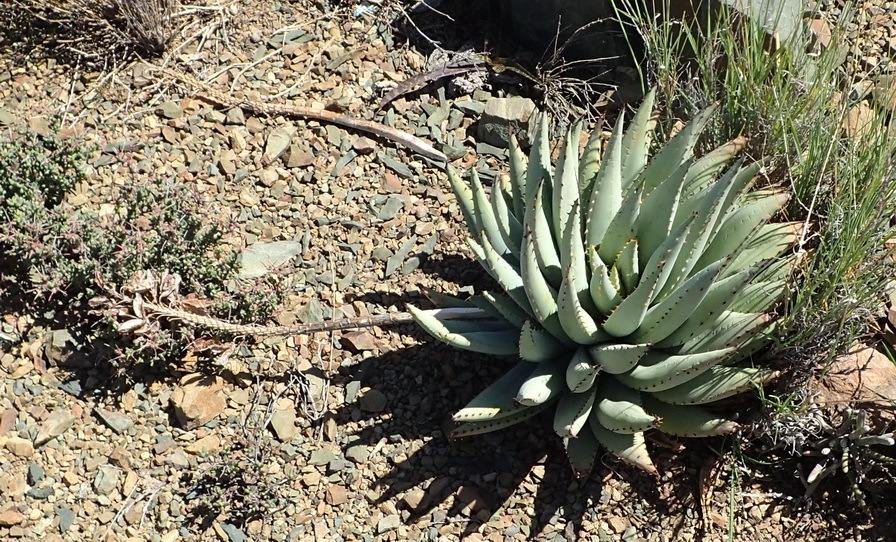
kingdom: Plantae
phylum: Tracheophyta
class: Liliopsida
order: Asparagales
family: Asphodelaceae
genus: Aloe
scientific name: Aloe claviflora
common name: Cannon aloe
